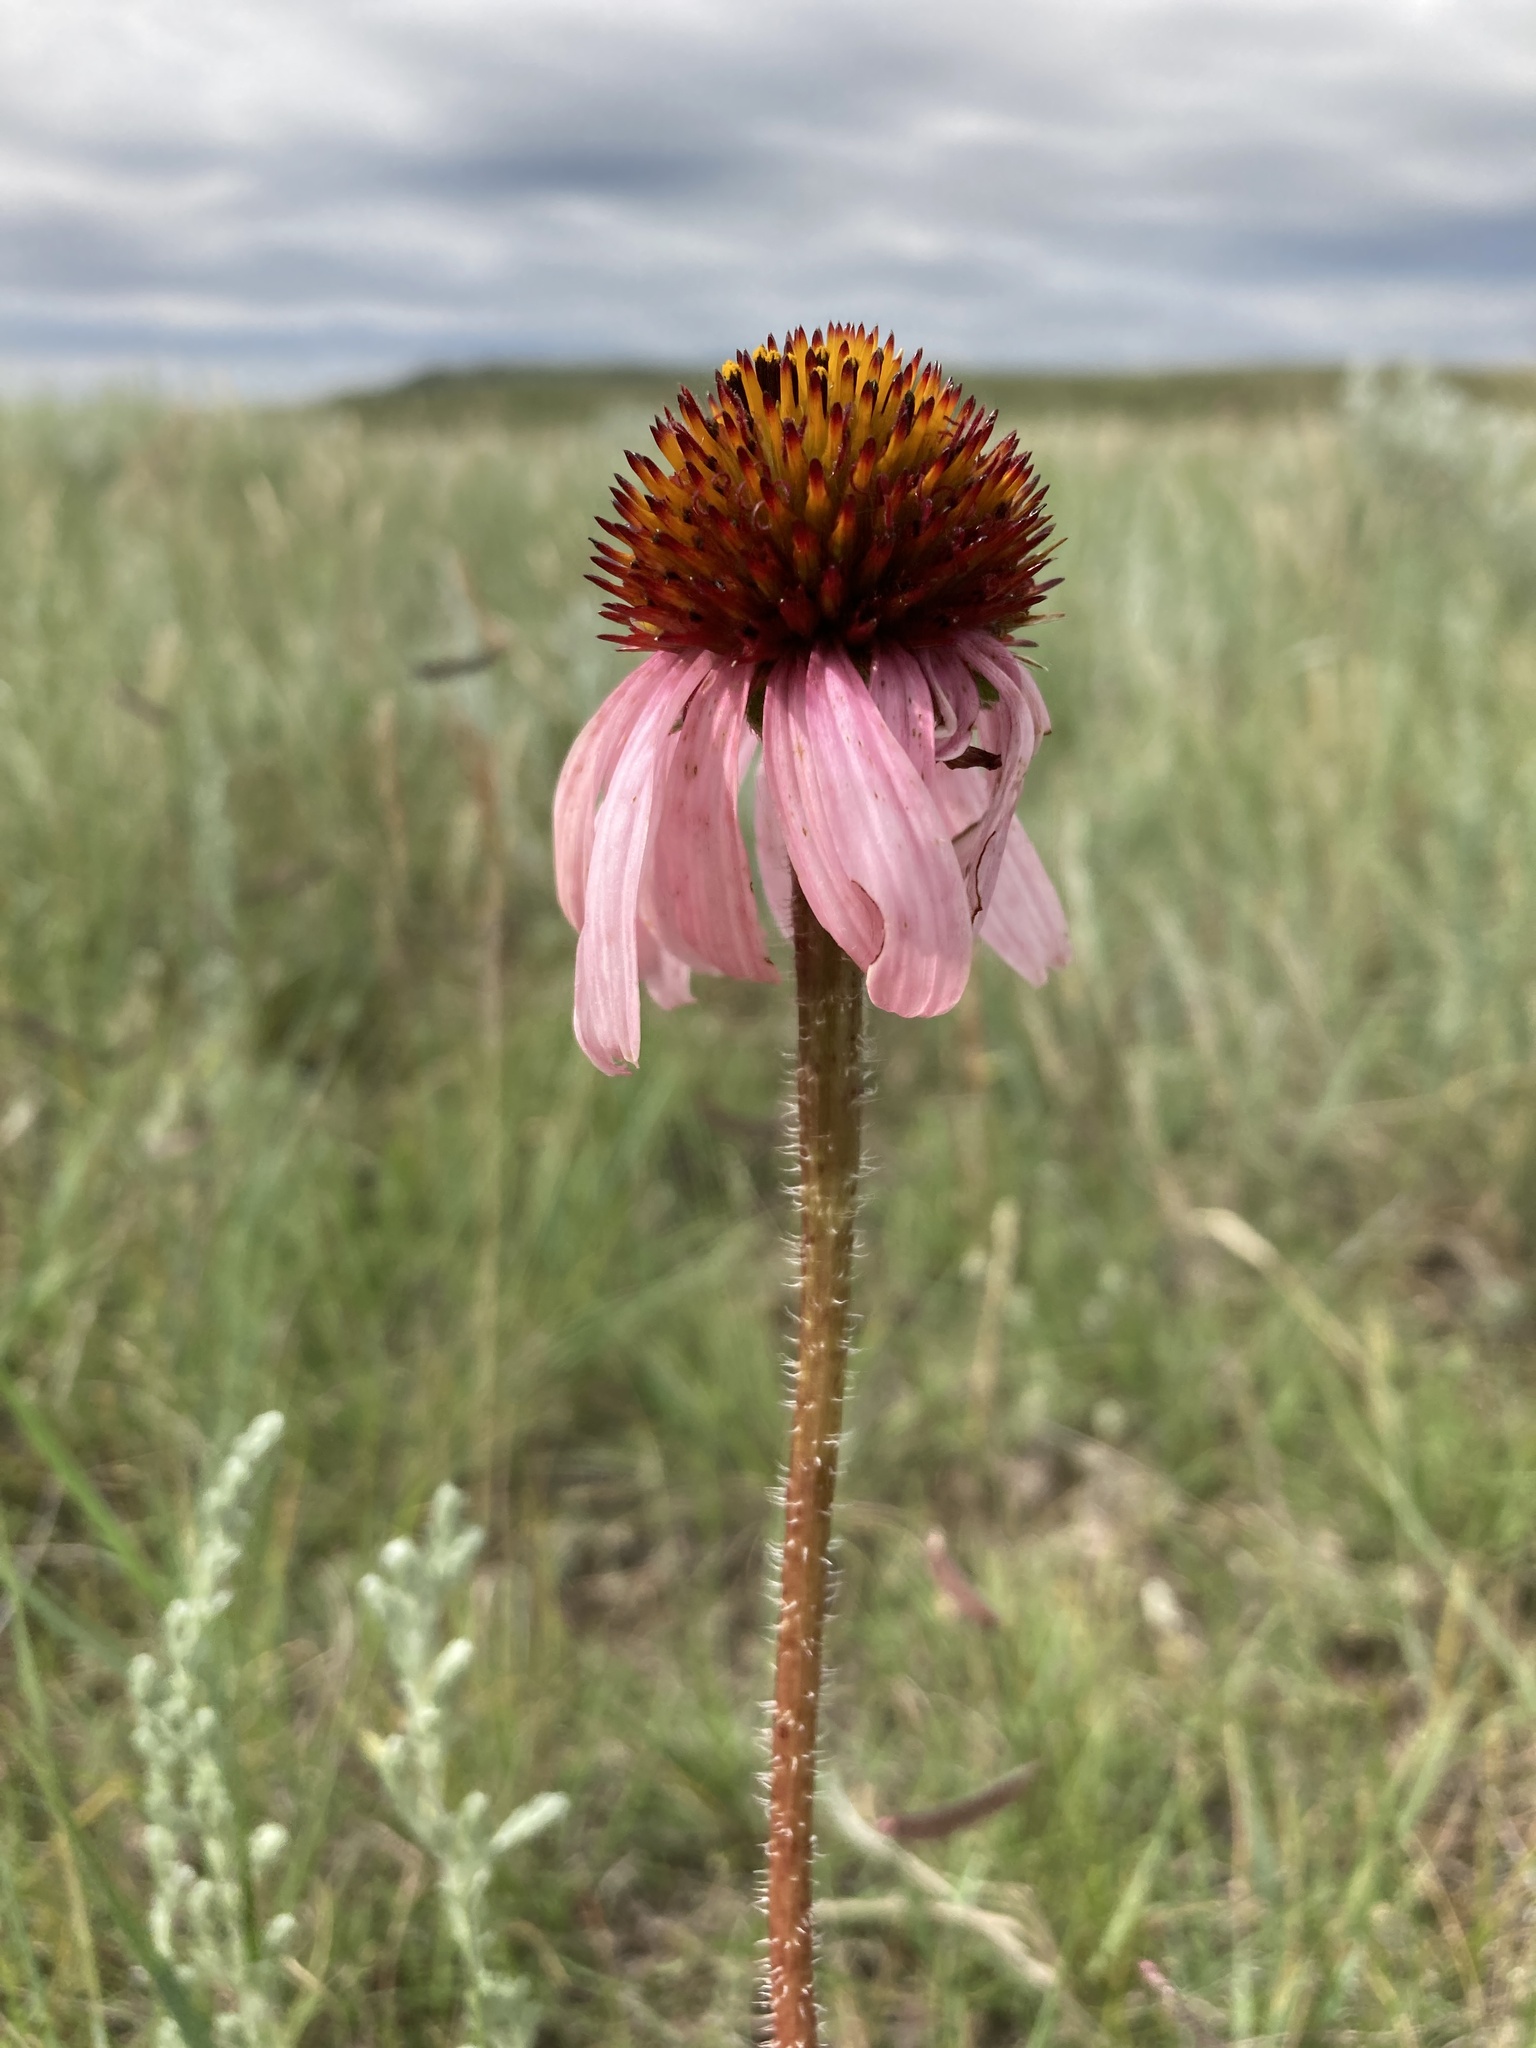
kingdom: Plantae
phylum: Tracheophyta
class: Magnoliopsida
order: Asterales
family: Asteraceae
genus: Echinacea
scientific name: Echinacea angustifolia
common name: Black-sampson echinacea
